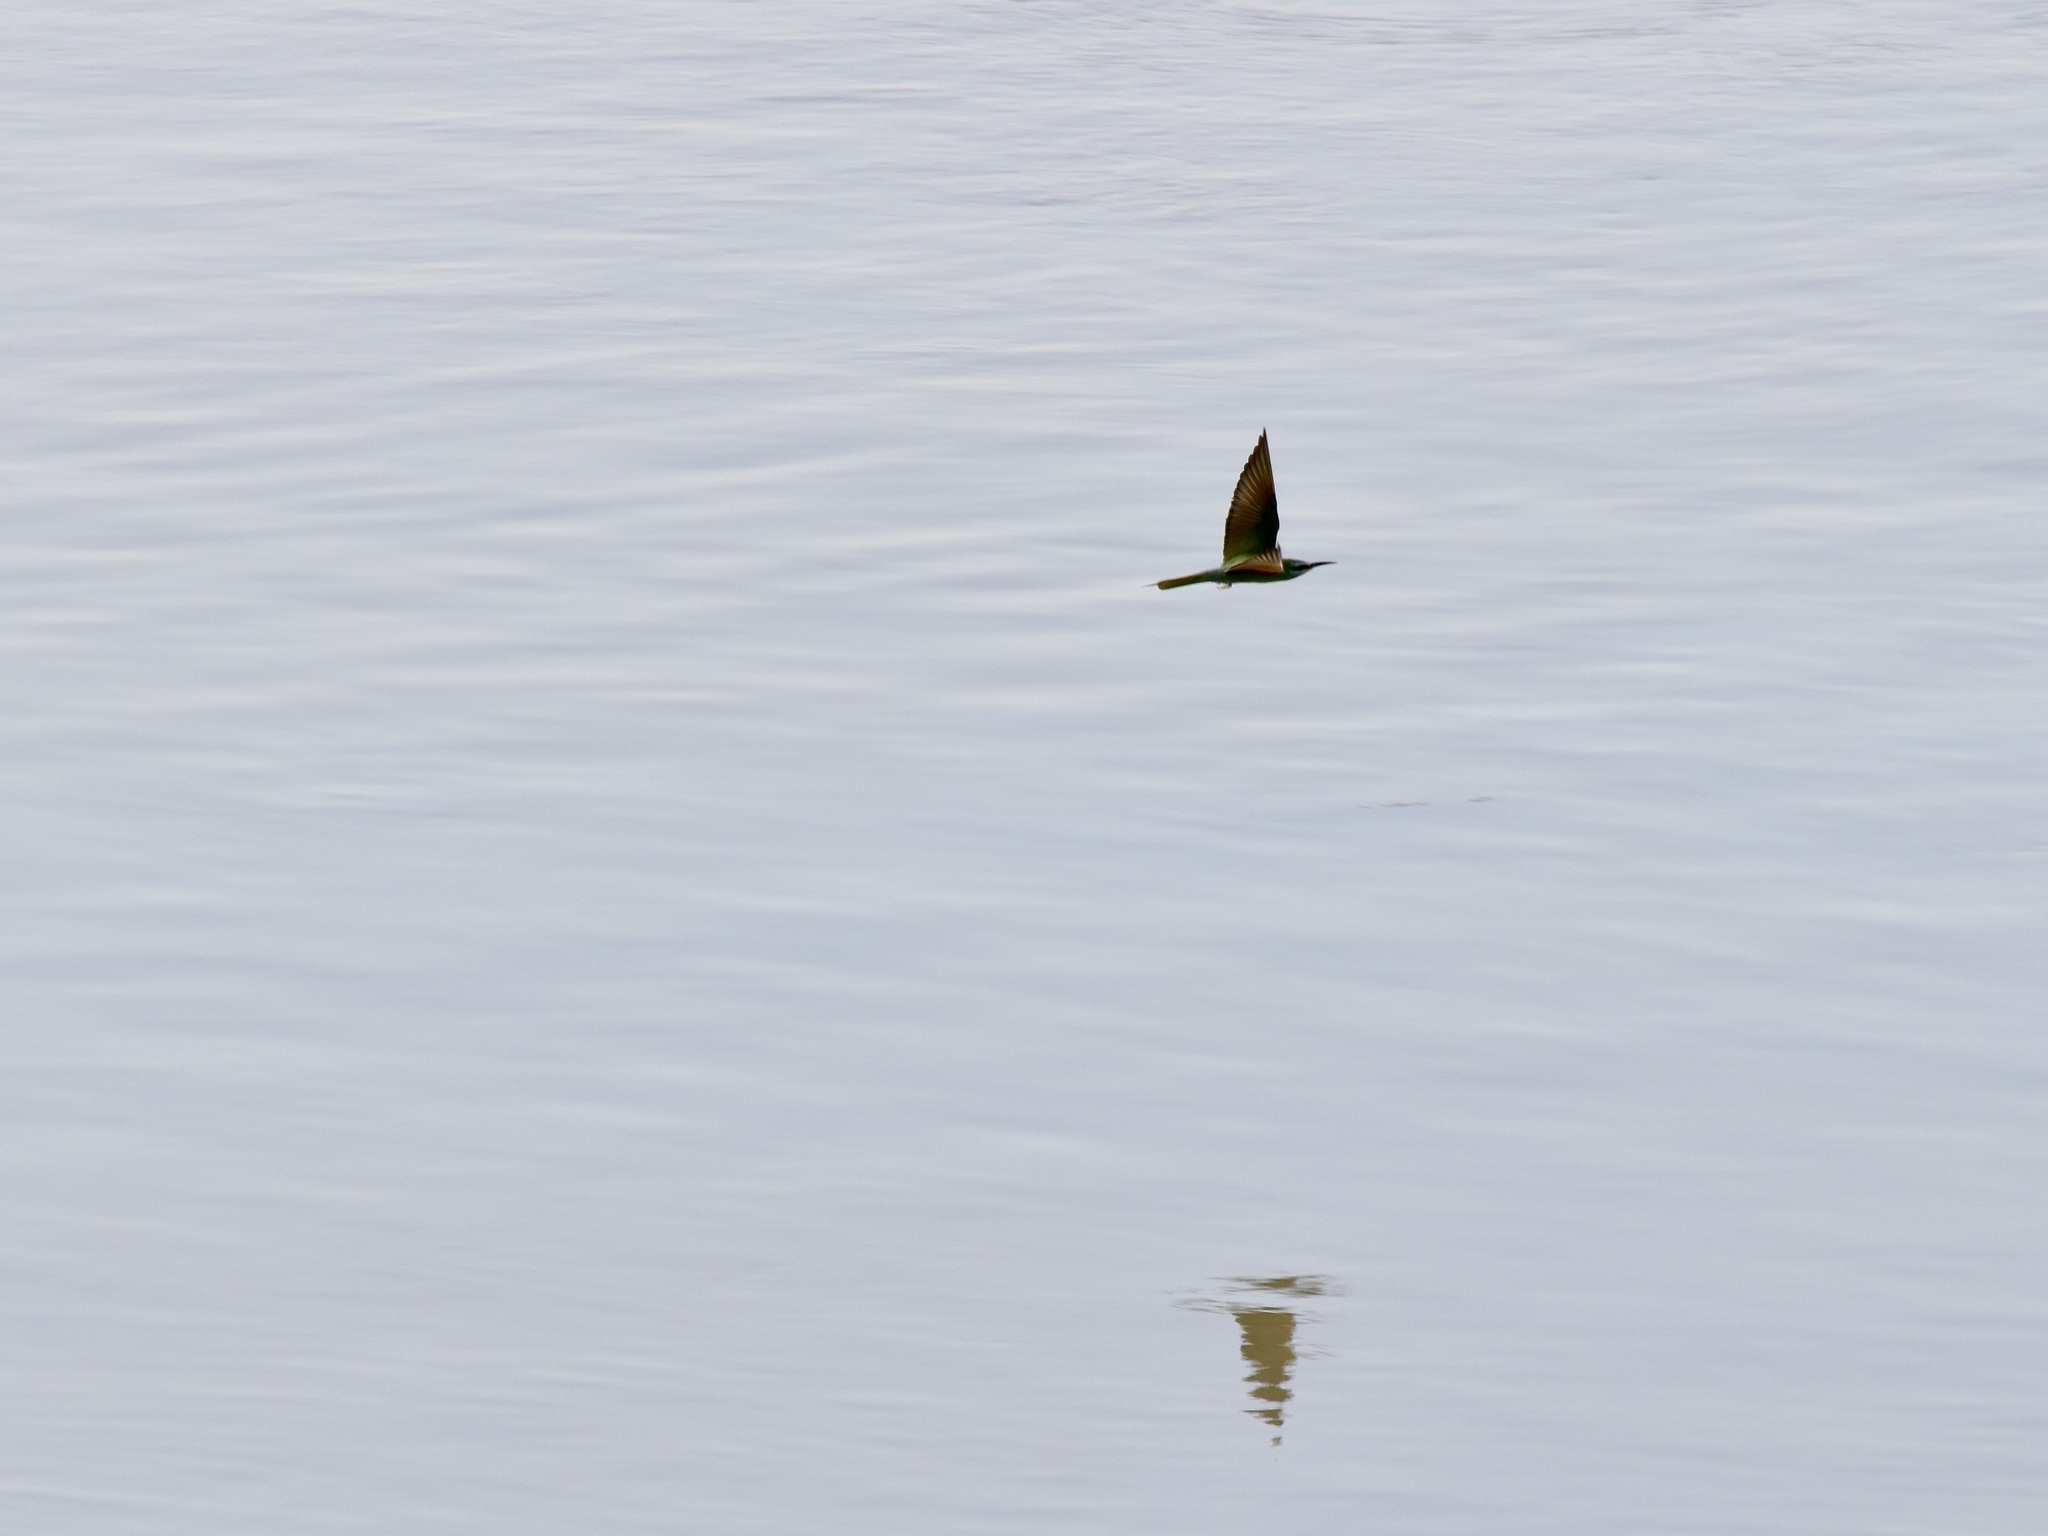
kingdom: Animalia
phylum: Chordata
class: Aves
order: Coraciiformes
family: Meropidae
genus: Merops
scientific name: Merops persicus
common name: Blue-cheeked bee-eater
